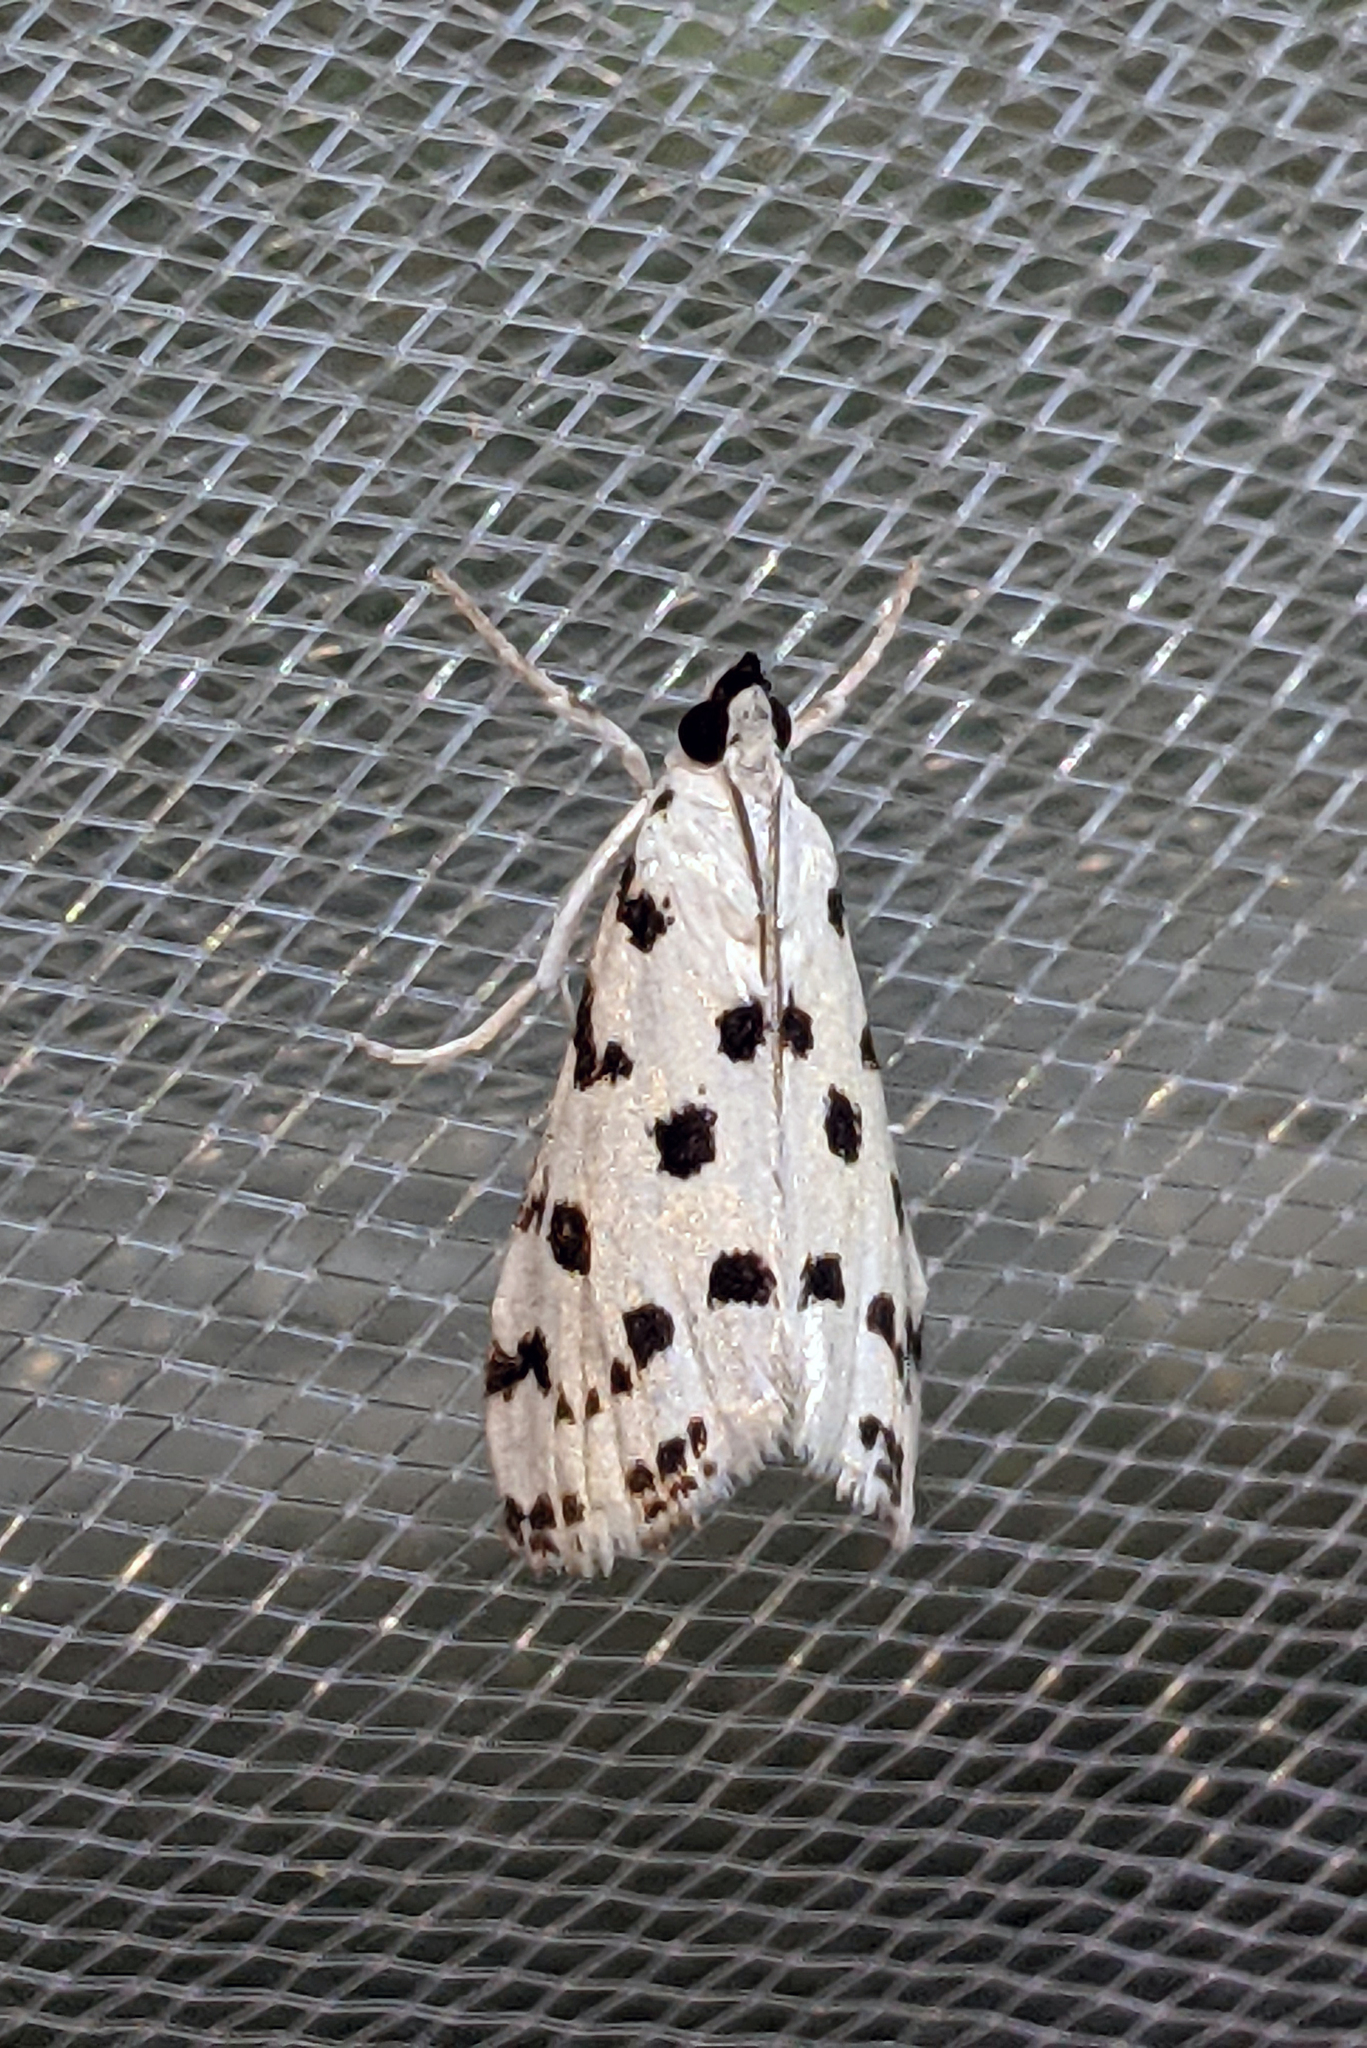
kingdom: Animalia
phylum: Arthropoda
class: Insecta
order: Lepidoptera
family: Crambidae
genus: Eustixia
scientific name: Eustixia pupula
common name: American cabbage pearl
